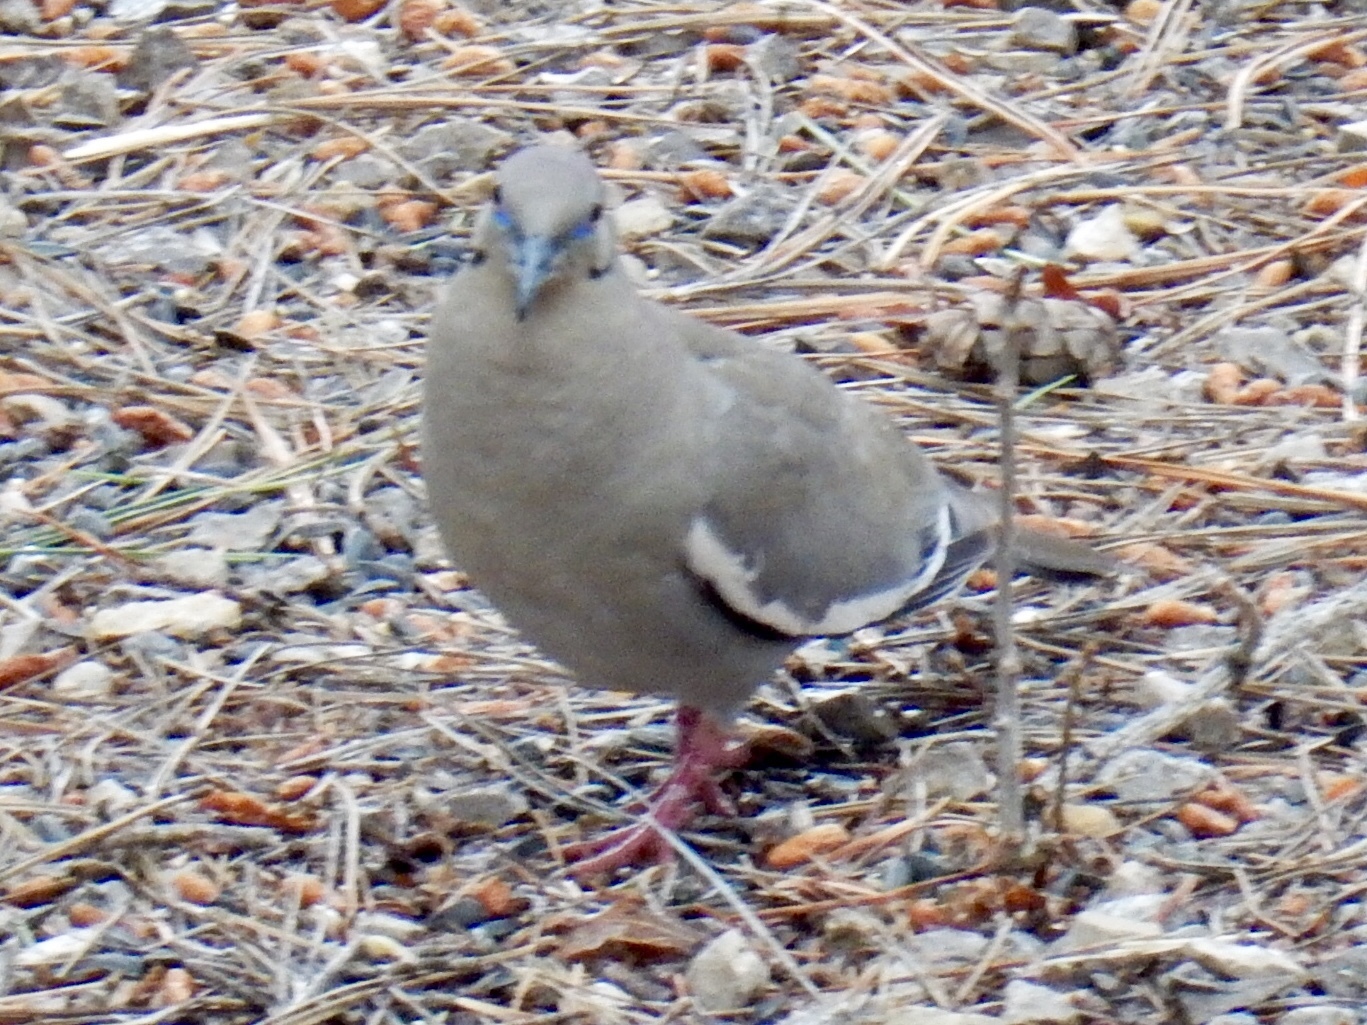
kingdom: Animalia
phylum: Chordata
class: Aves
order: Columbiformes
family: Columbidae
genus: Zenaida
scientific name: Zenaida asiatica
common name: White-winged dove
